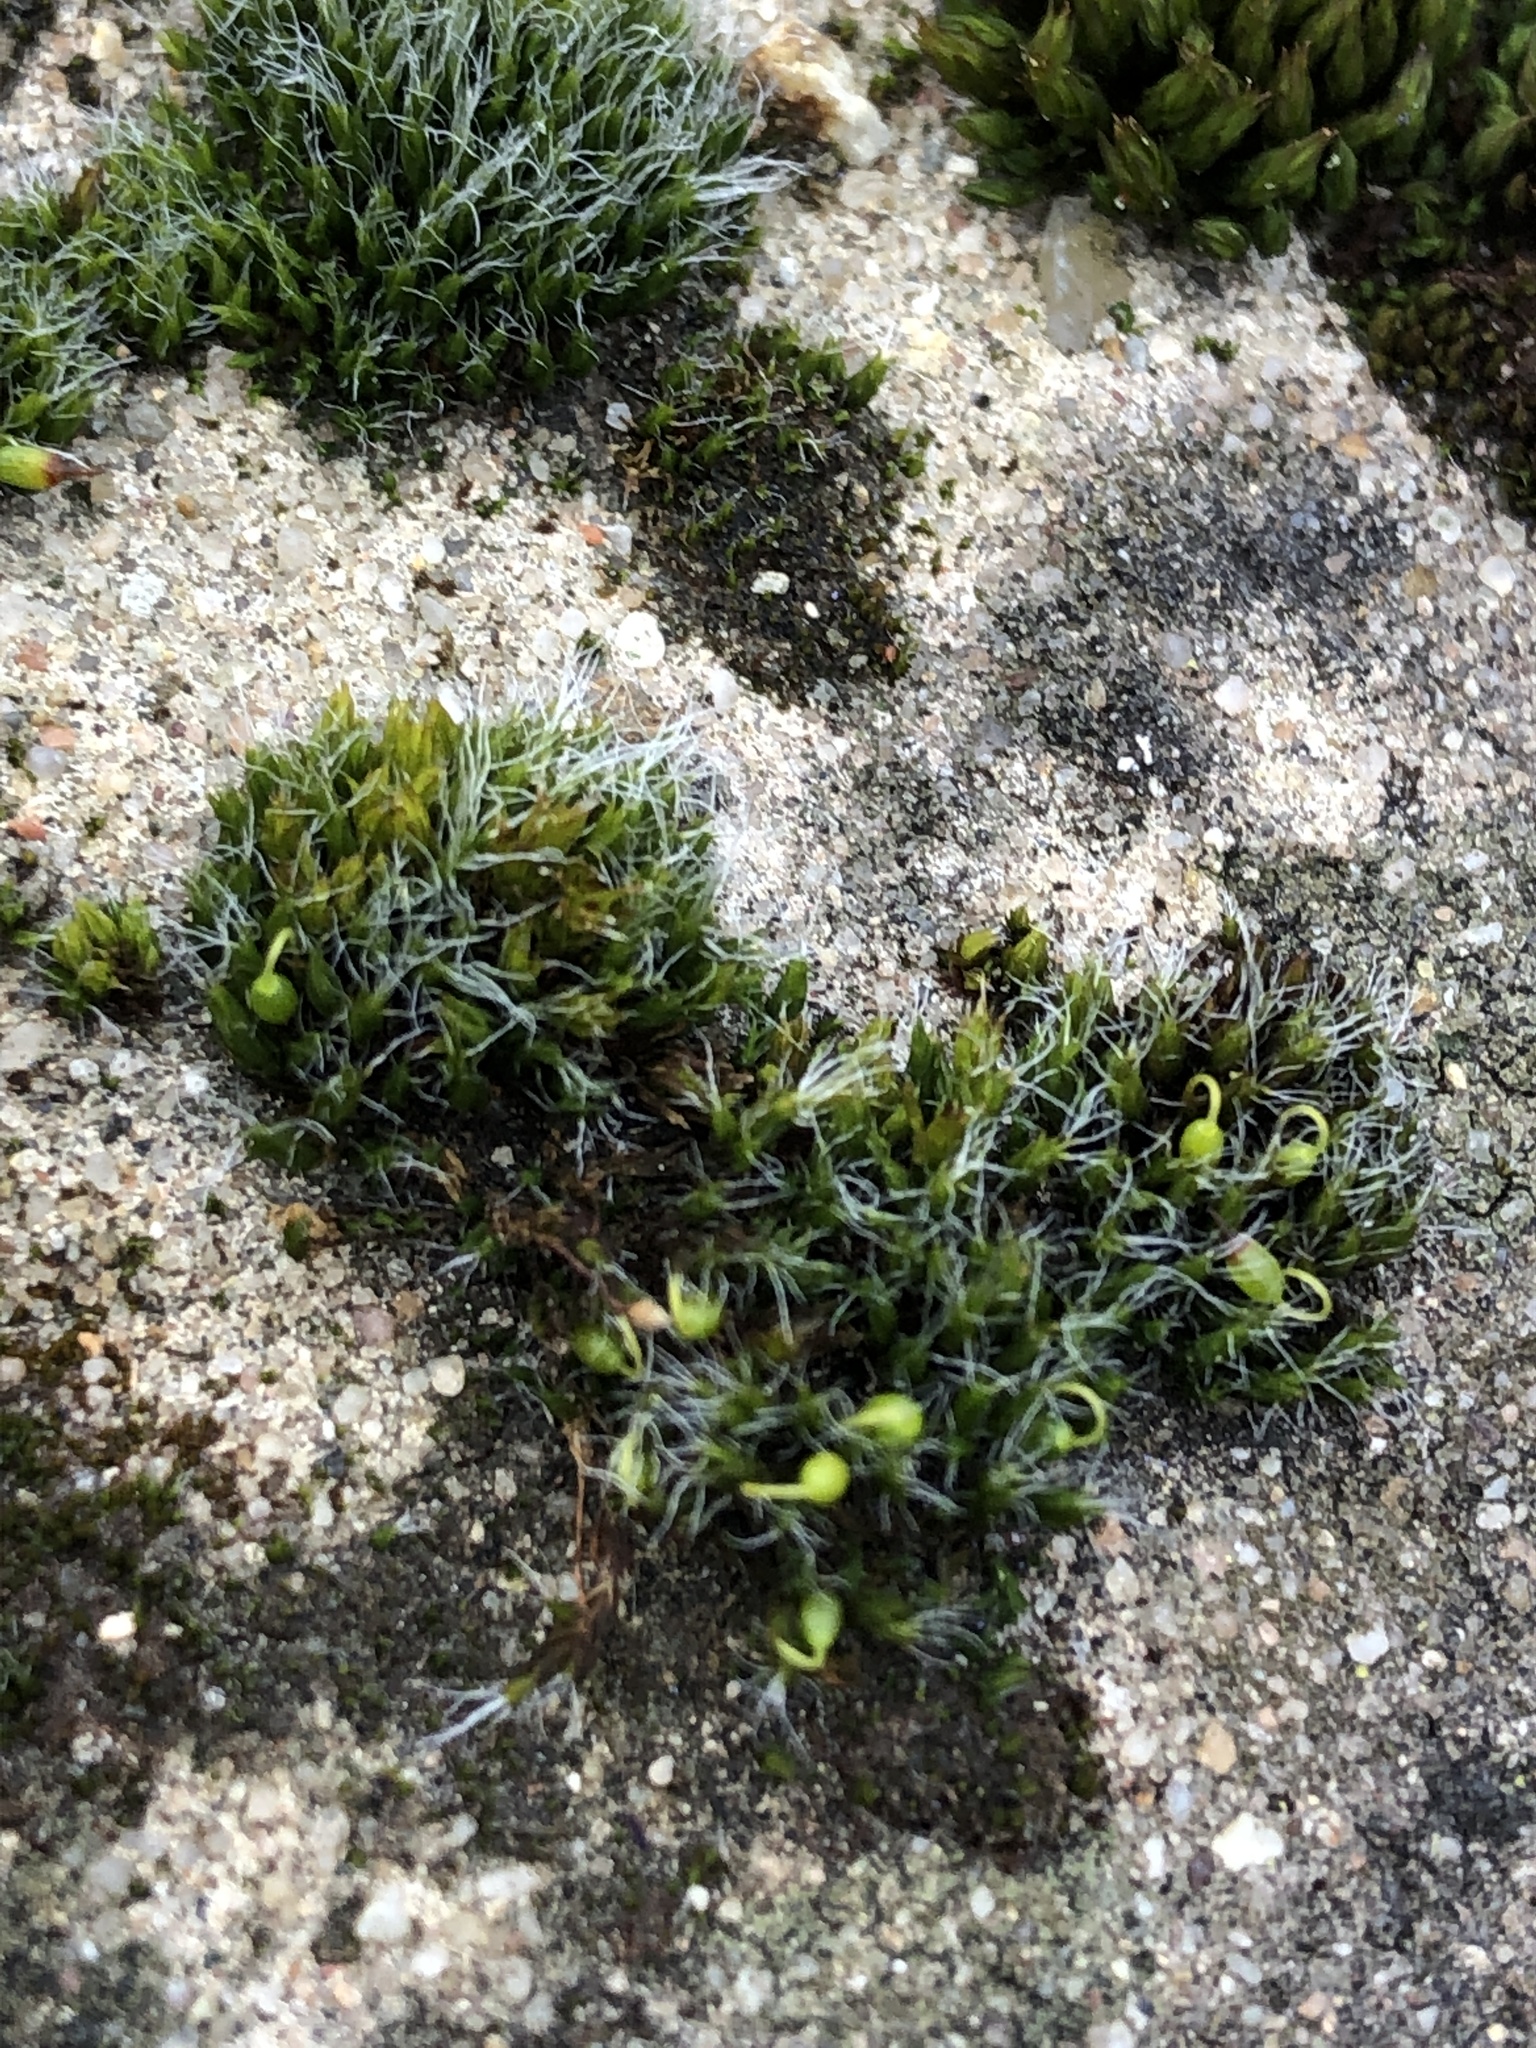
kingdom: Plantae
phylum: Bryophyta
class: Bryopsida
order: Grimmiales
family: Grimmiaceae
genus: Grimmia
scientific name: Grimmia pulvinata
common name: Grey-cushioned grimmia
